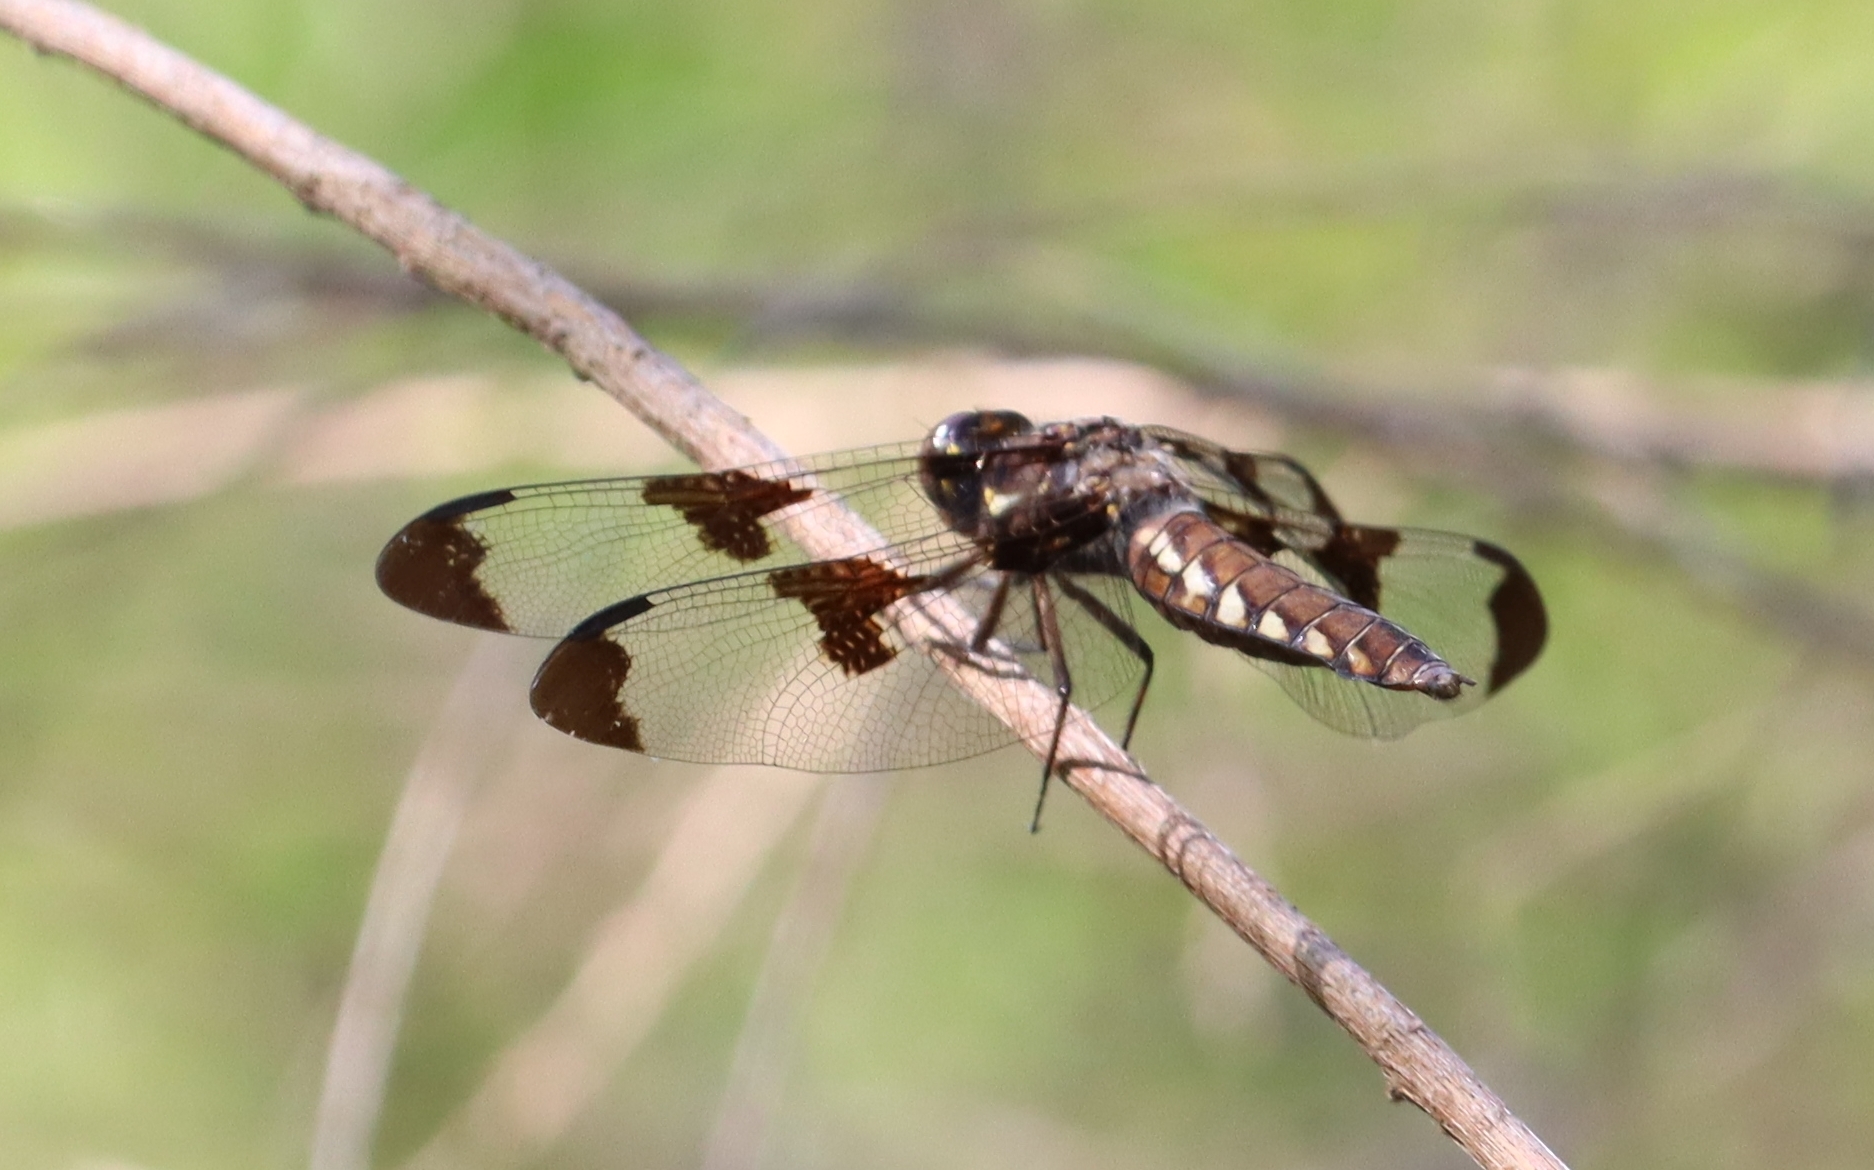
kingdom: Animalia
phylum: Arthropoda
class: Insecta
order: Odonata
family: Libellulidae
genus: Plathemis
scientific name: Plathemis lydia
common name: Common whitetail
